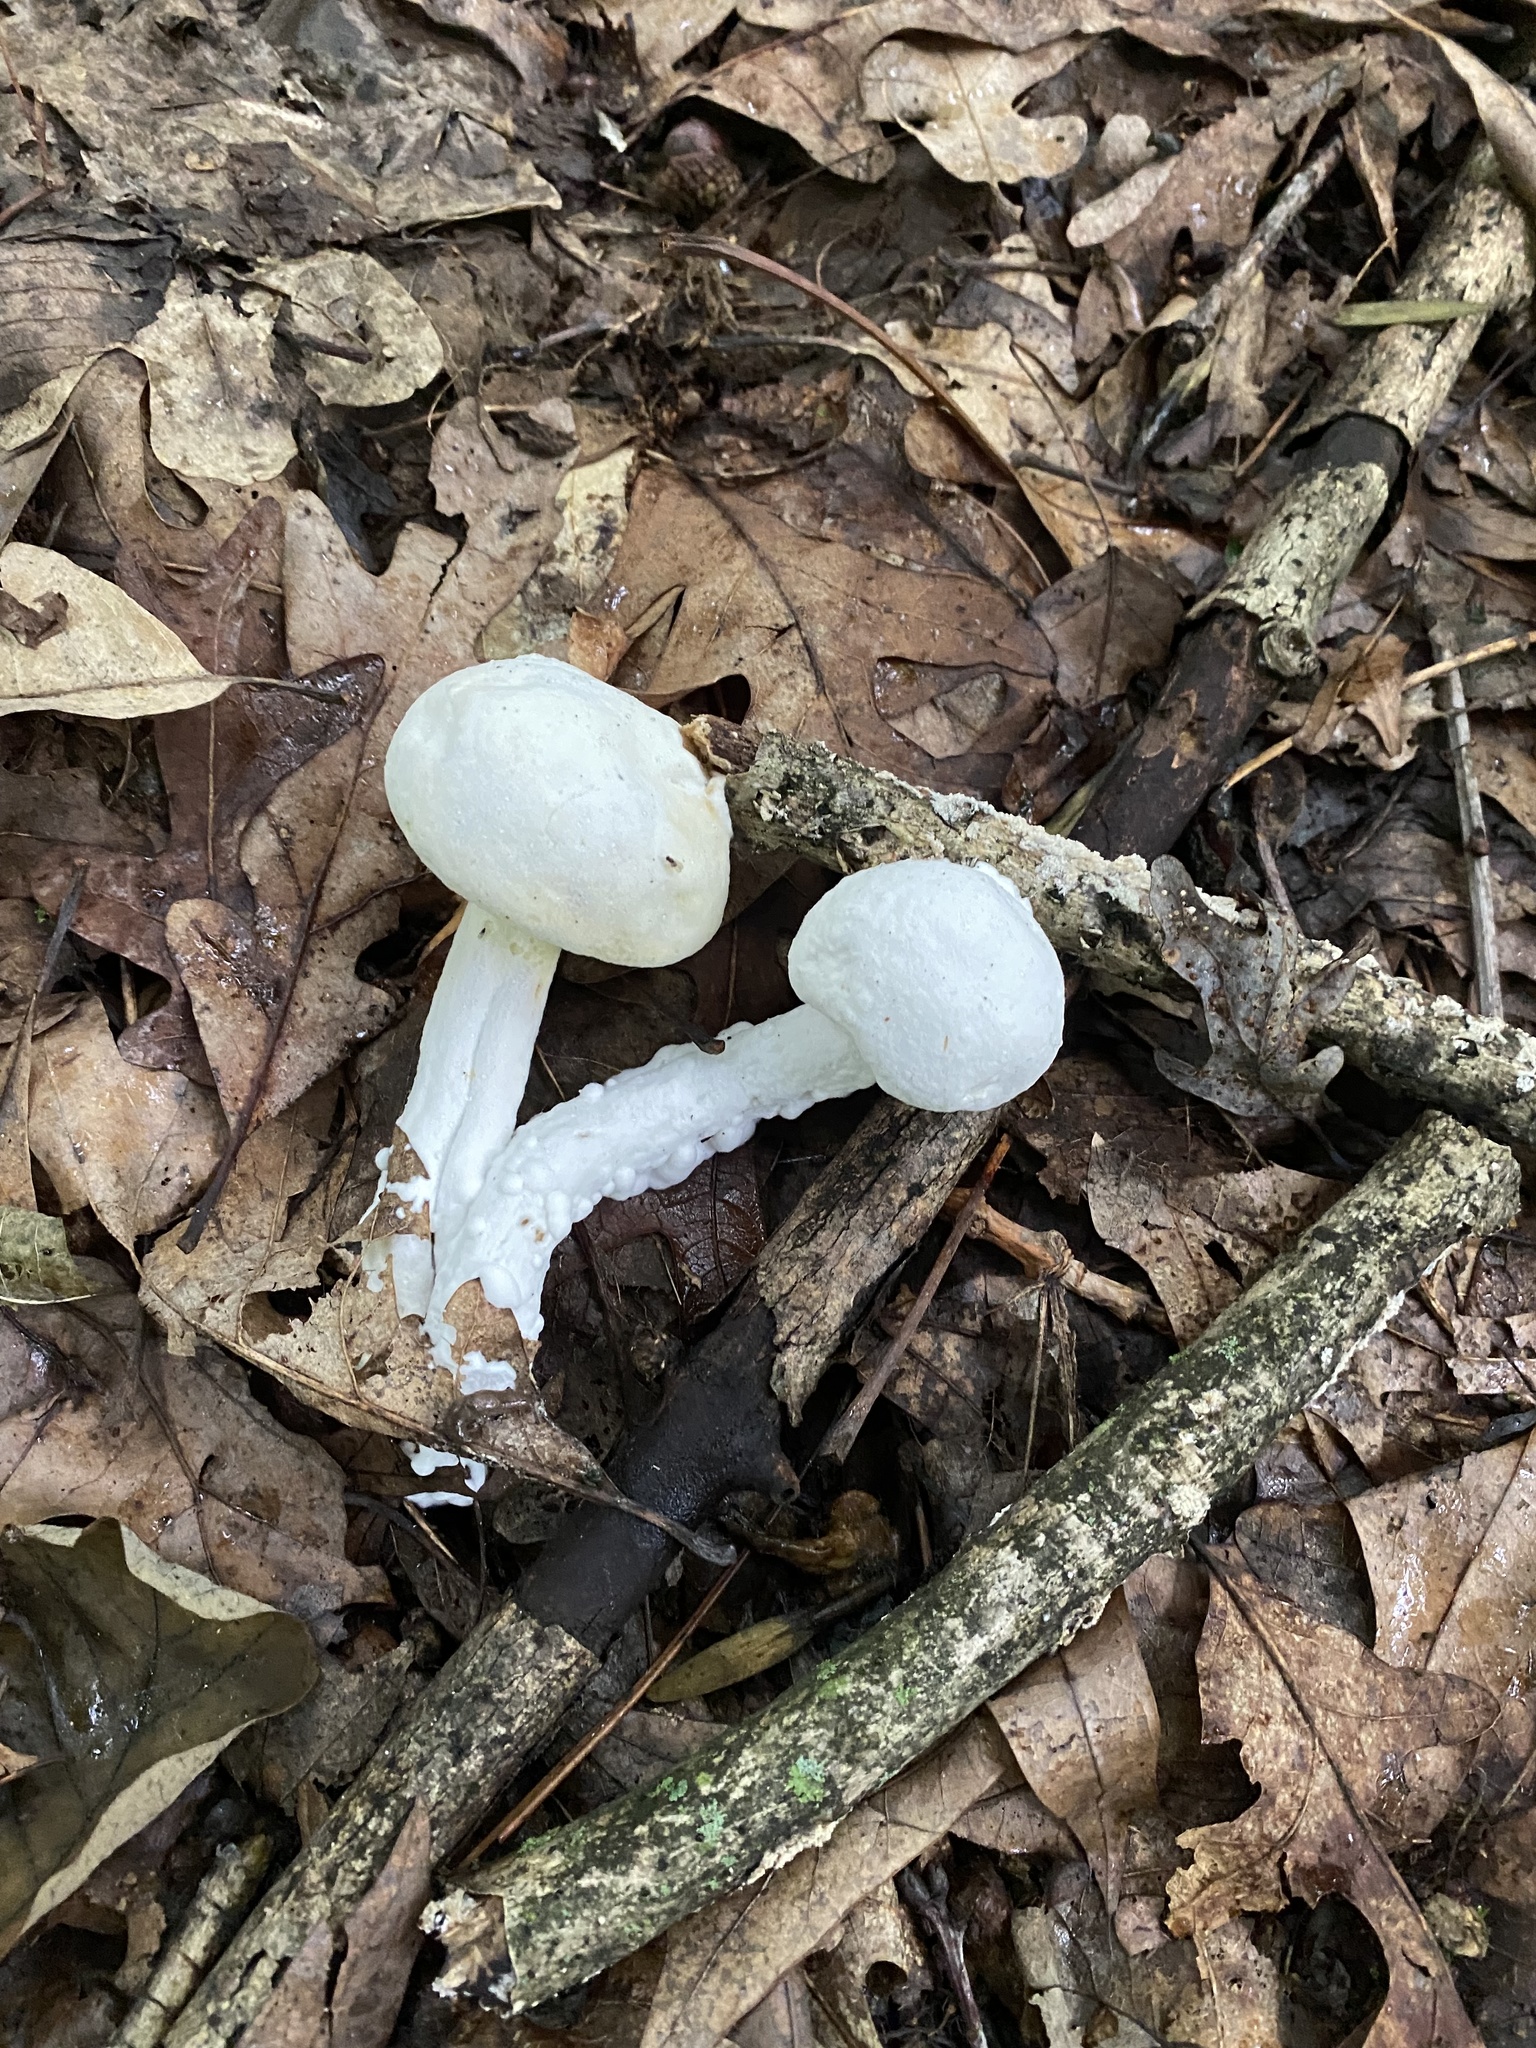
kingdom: Fungi
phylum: Ascomycota
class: Sordariomycetes
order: Hypocreales
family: Hypocreaceae
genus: Hypomyces
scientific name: Hypomyces chrysospermus
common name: Bolete mould
